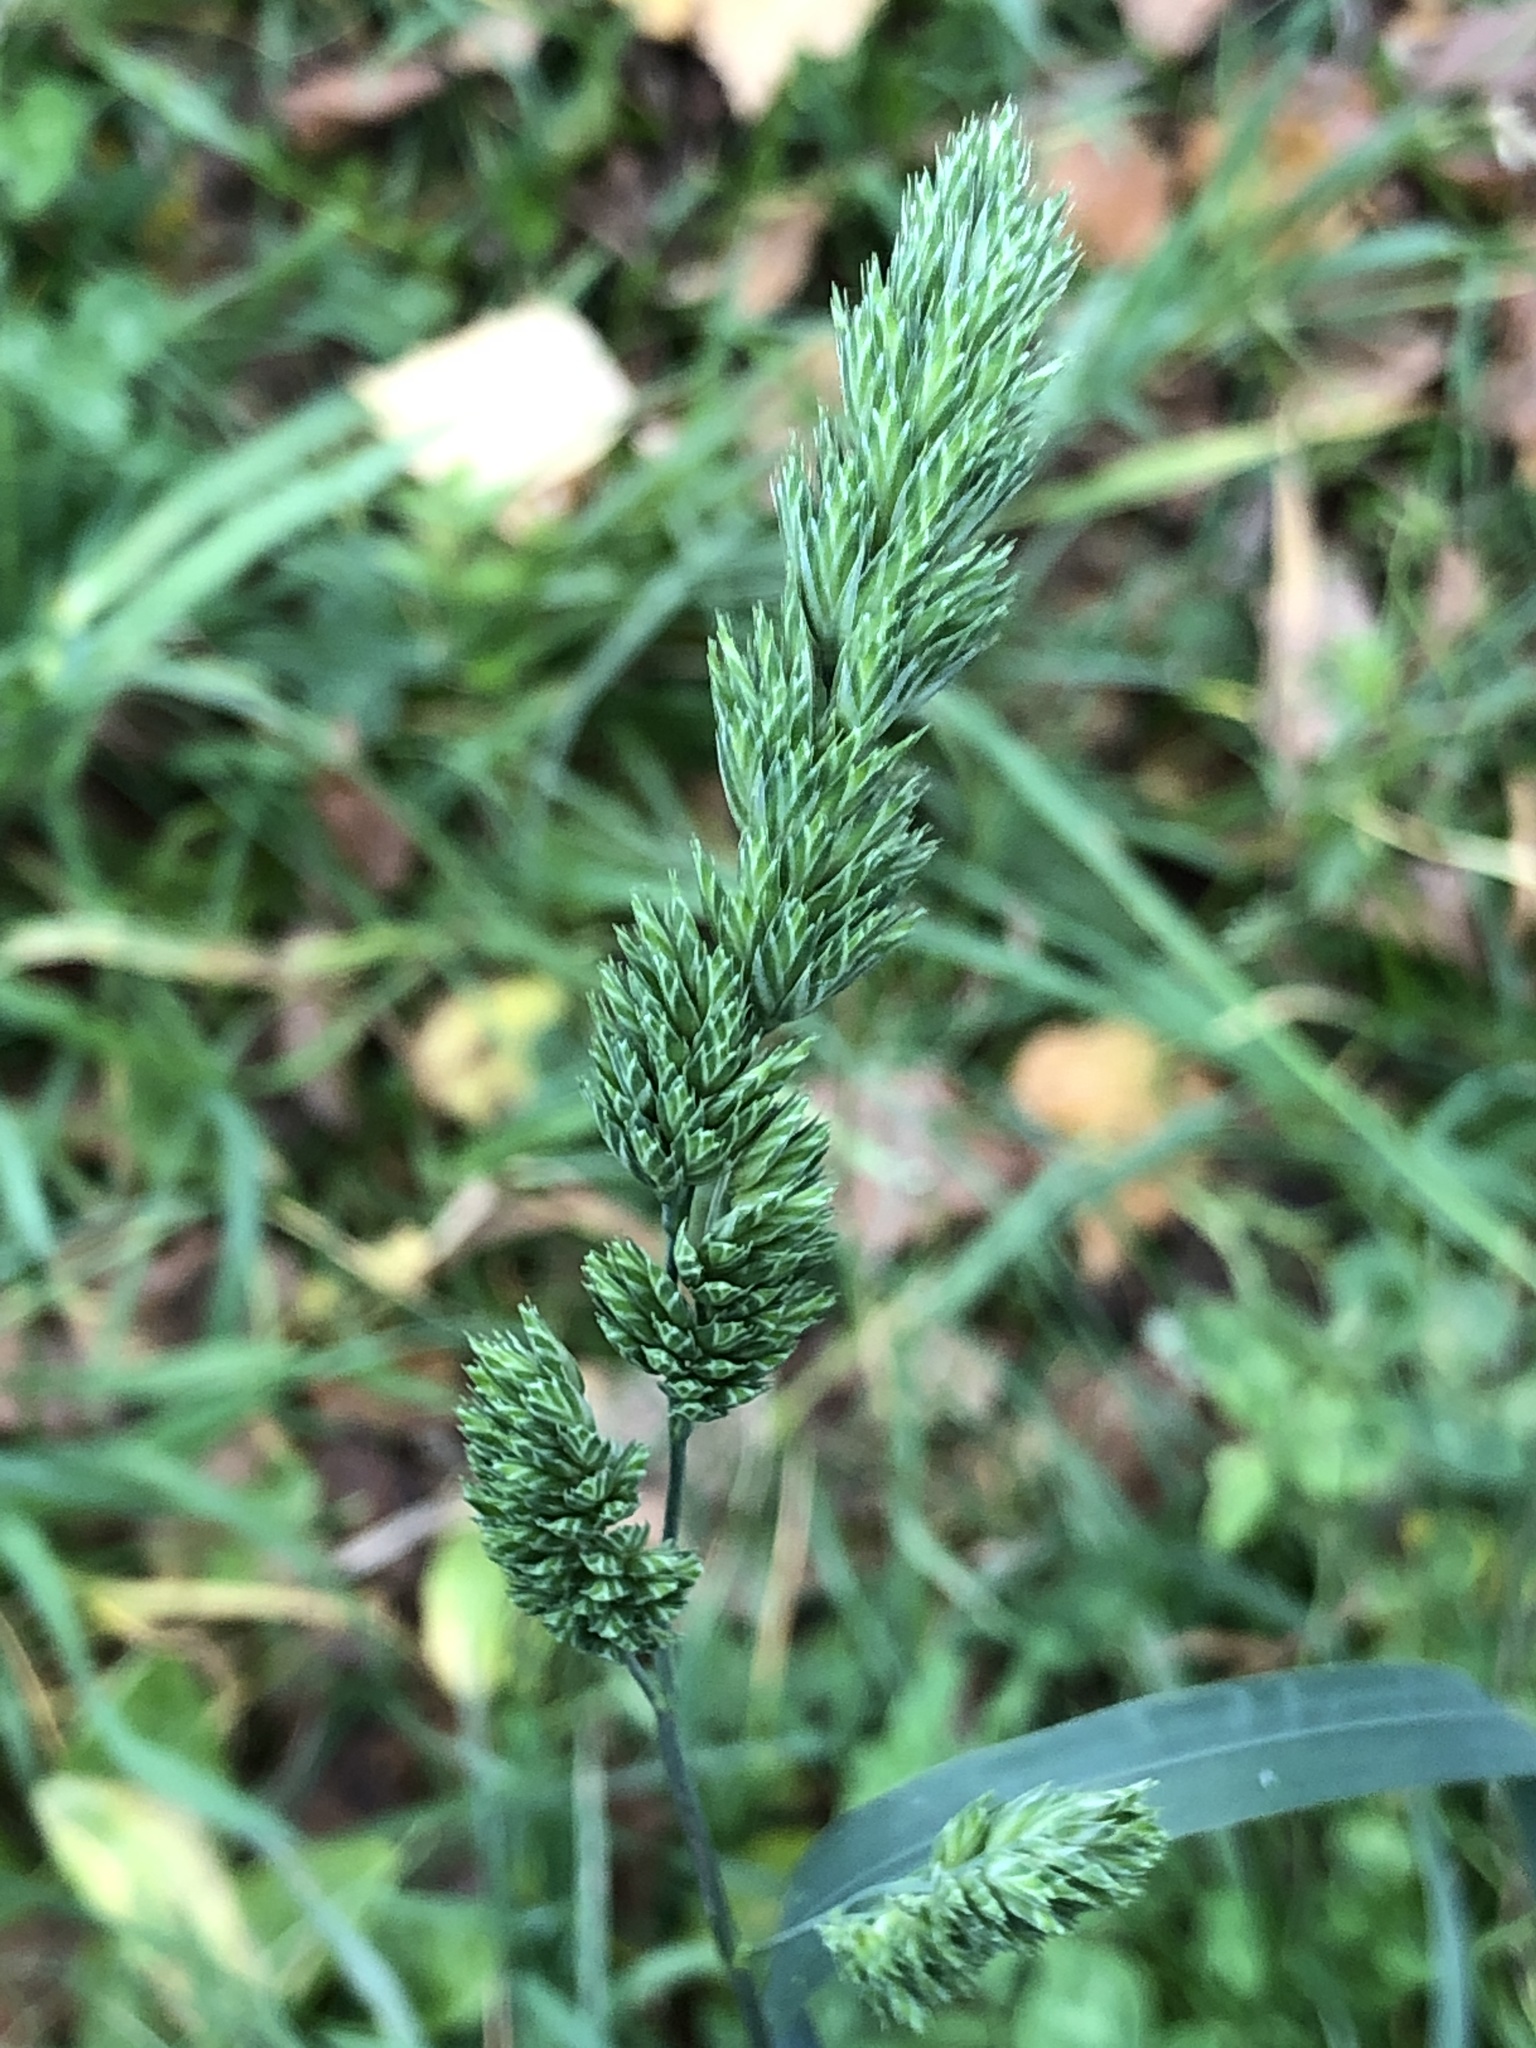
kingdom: Plantae
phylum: Tracheophyta
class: Liliopsida
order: Poales
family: Poaceae
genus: Dactylis
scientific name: Dactylis glomerata
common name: Orchardgrass
